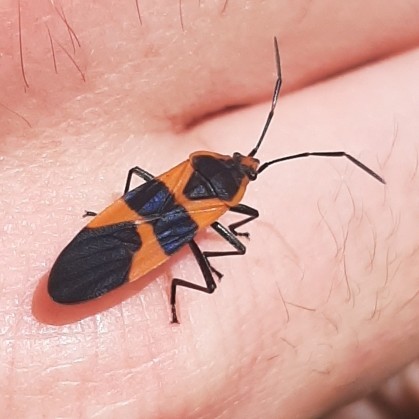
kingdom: Animalia
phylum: Arthropoda
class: Insecta
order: Hemiptera
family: Lygaeidae
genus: Oncopeltus
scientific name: Oncopeltus fasciatus
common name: Large milkweed bug
